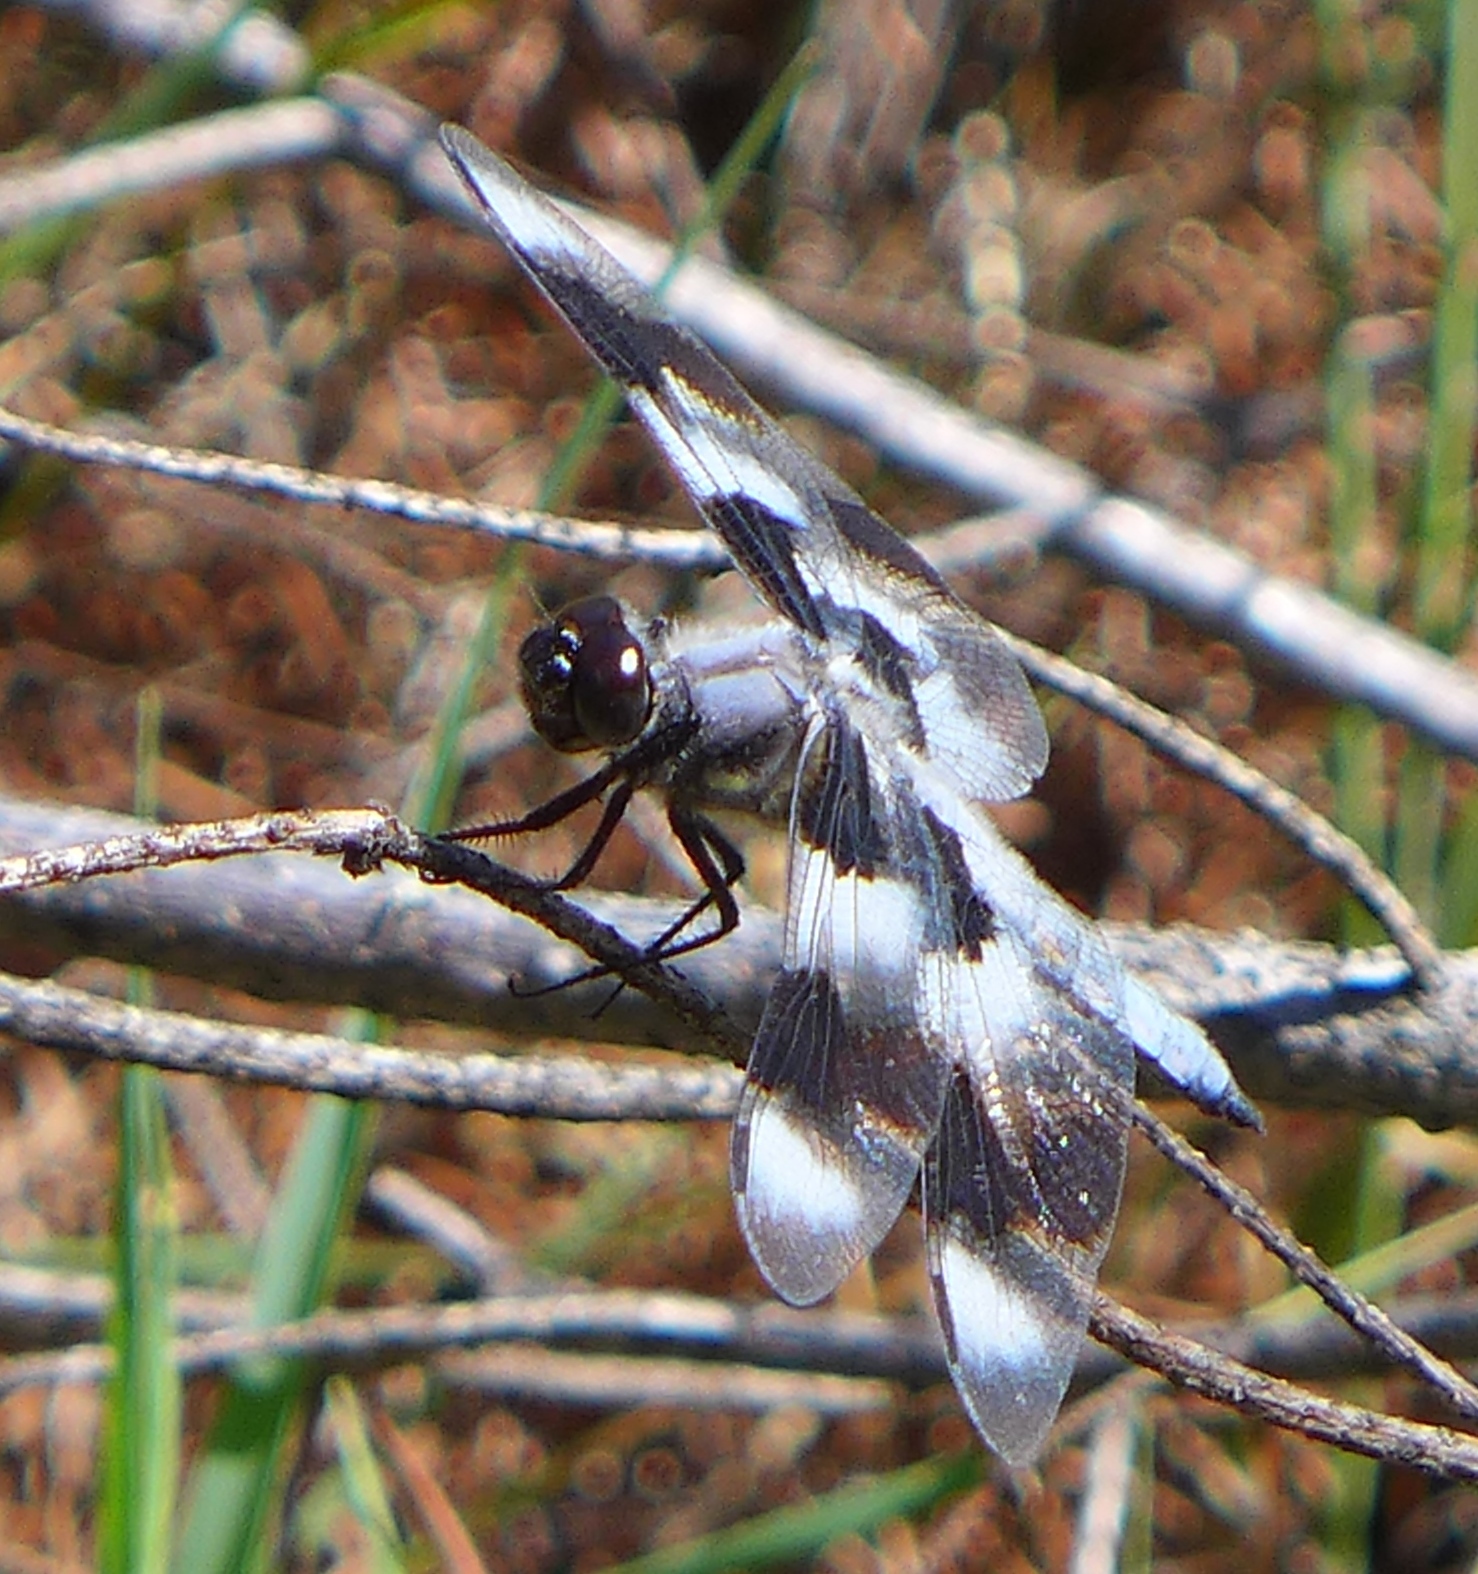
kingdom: Animalia
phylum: Arthropoda
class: Insecta
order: Odonata
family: Libellulidae
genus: Libellula
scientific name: Libellula forensis
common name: Eight-spotted skimmer
